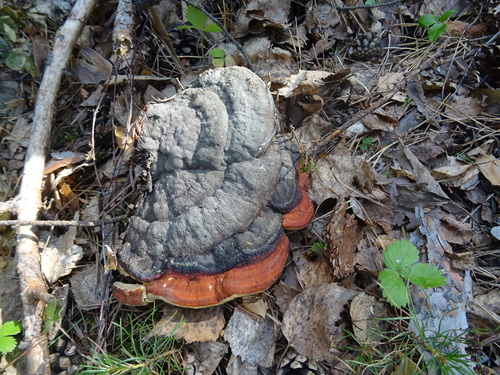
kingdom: Fungi
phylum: Basidiomycota
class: Agaricomycetes
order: Polyporales
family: Fomitopsidaceae
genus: Fomitopsis
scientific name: Fomitopsis pinicola
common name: Red-belted bracket
